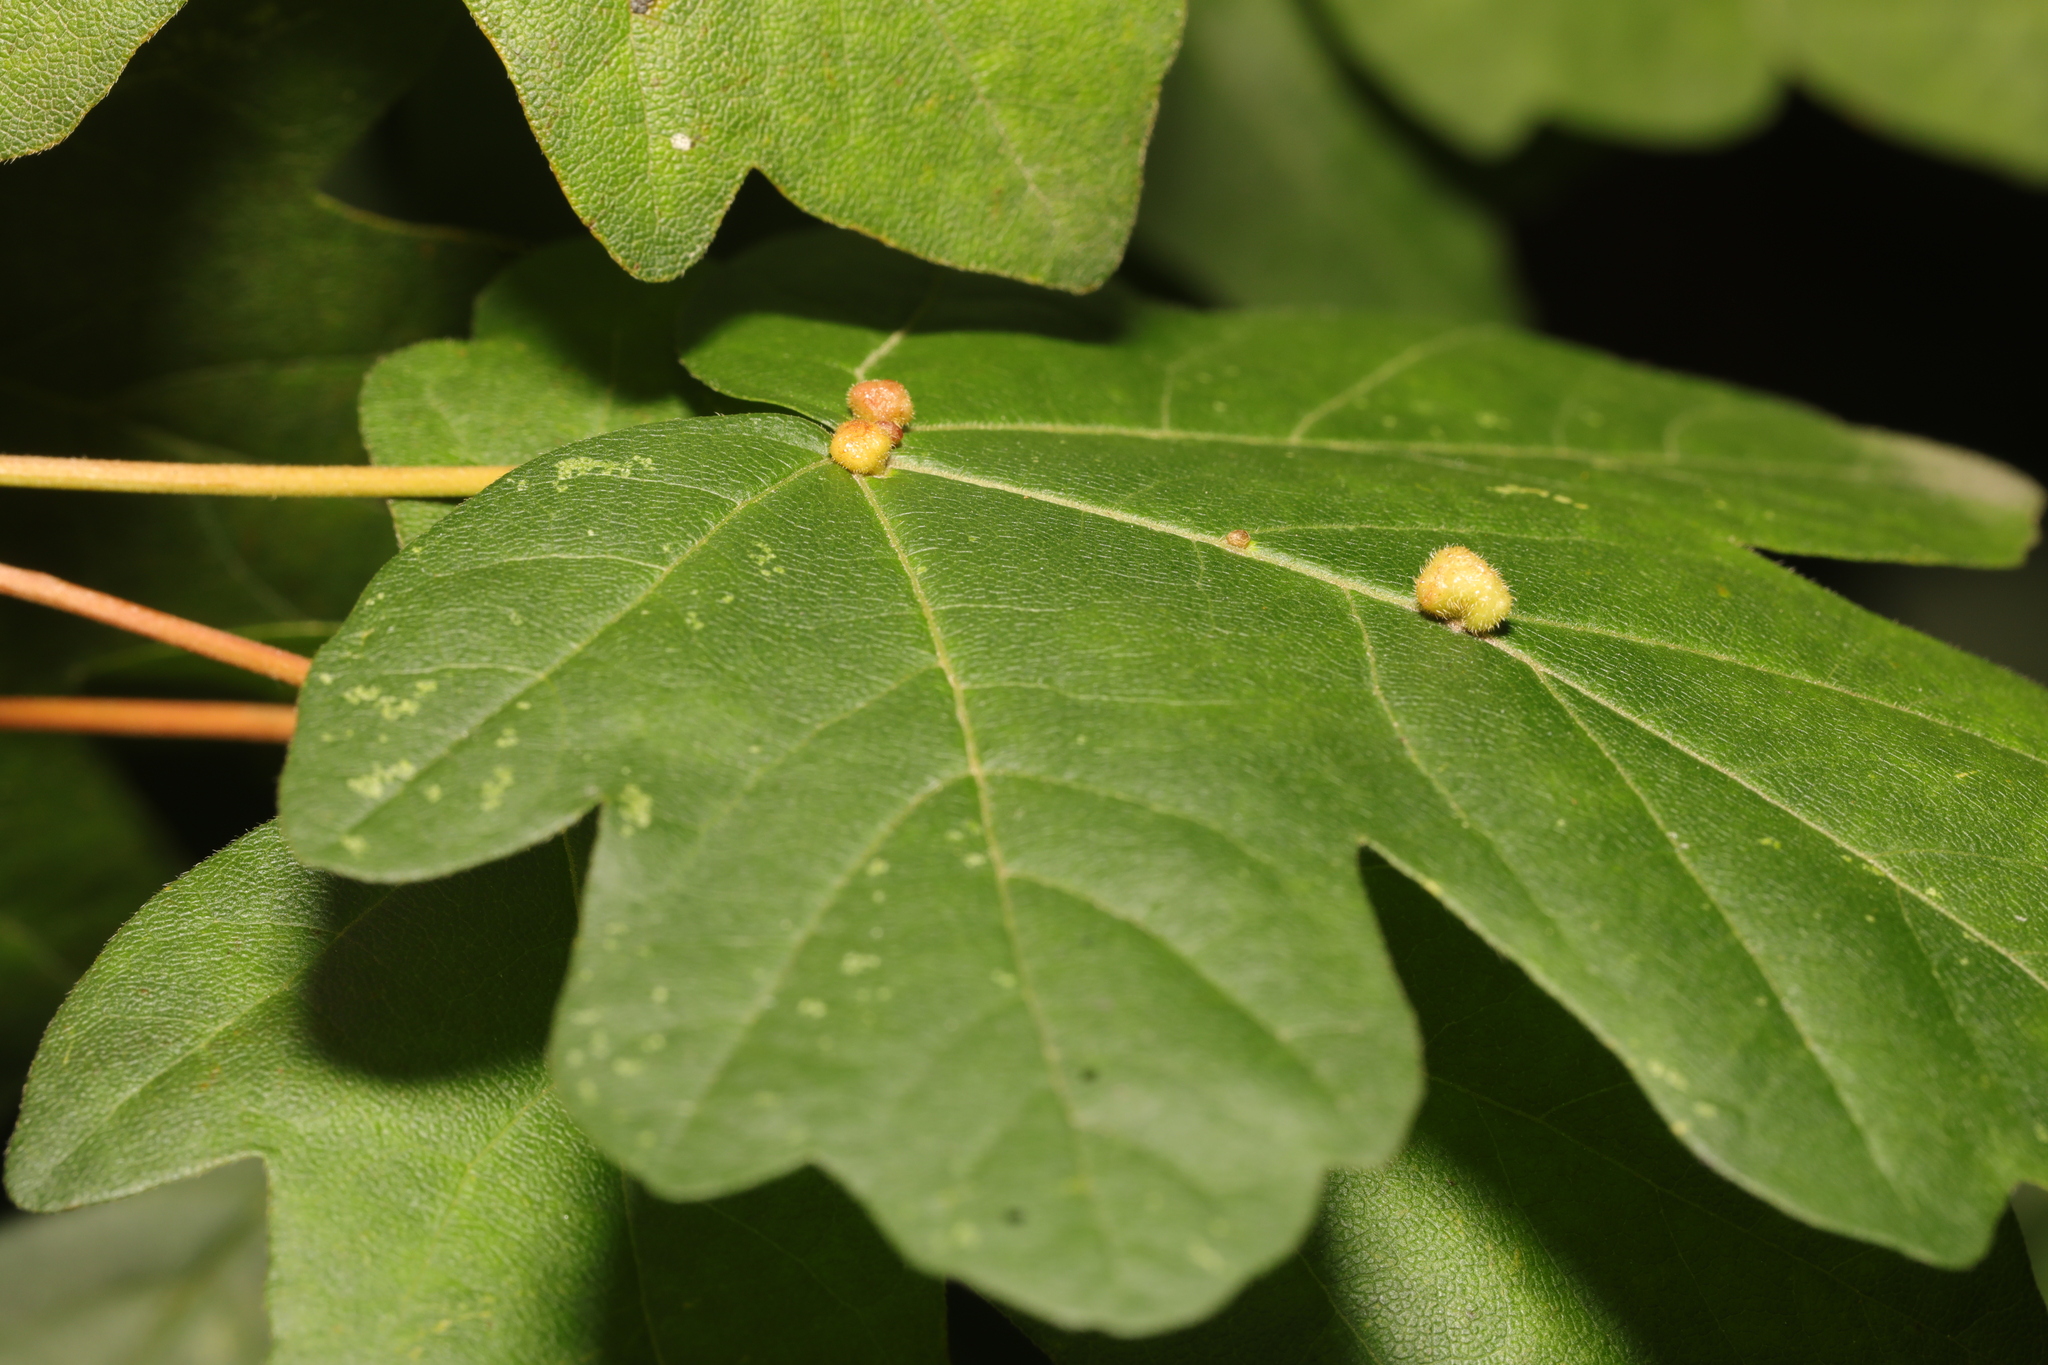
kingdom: Animalia
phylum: Arthropoda
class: Arachnida
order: Trombidiformes
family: Eriophyidae
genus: Aceria
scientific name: Aceria macrochelus
